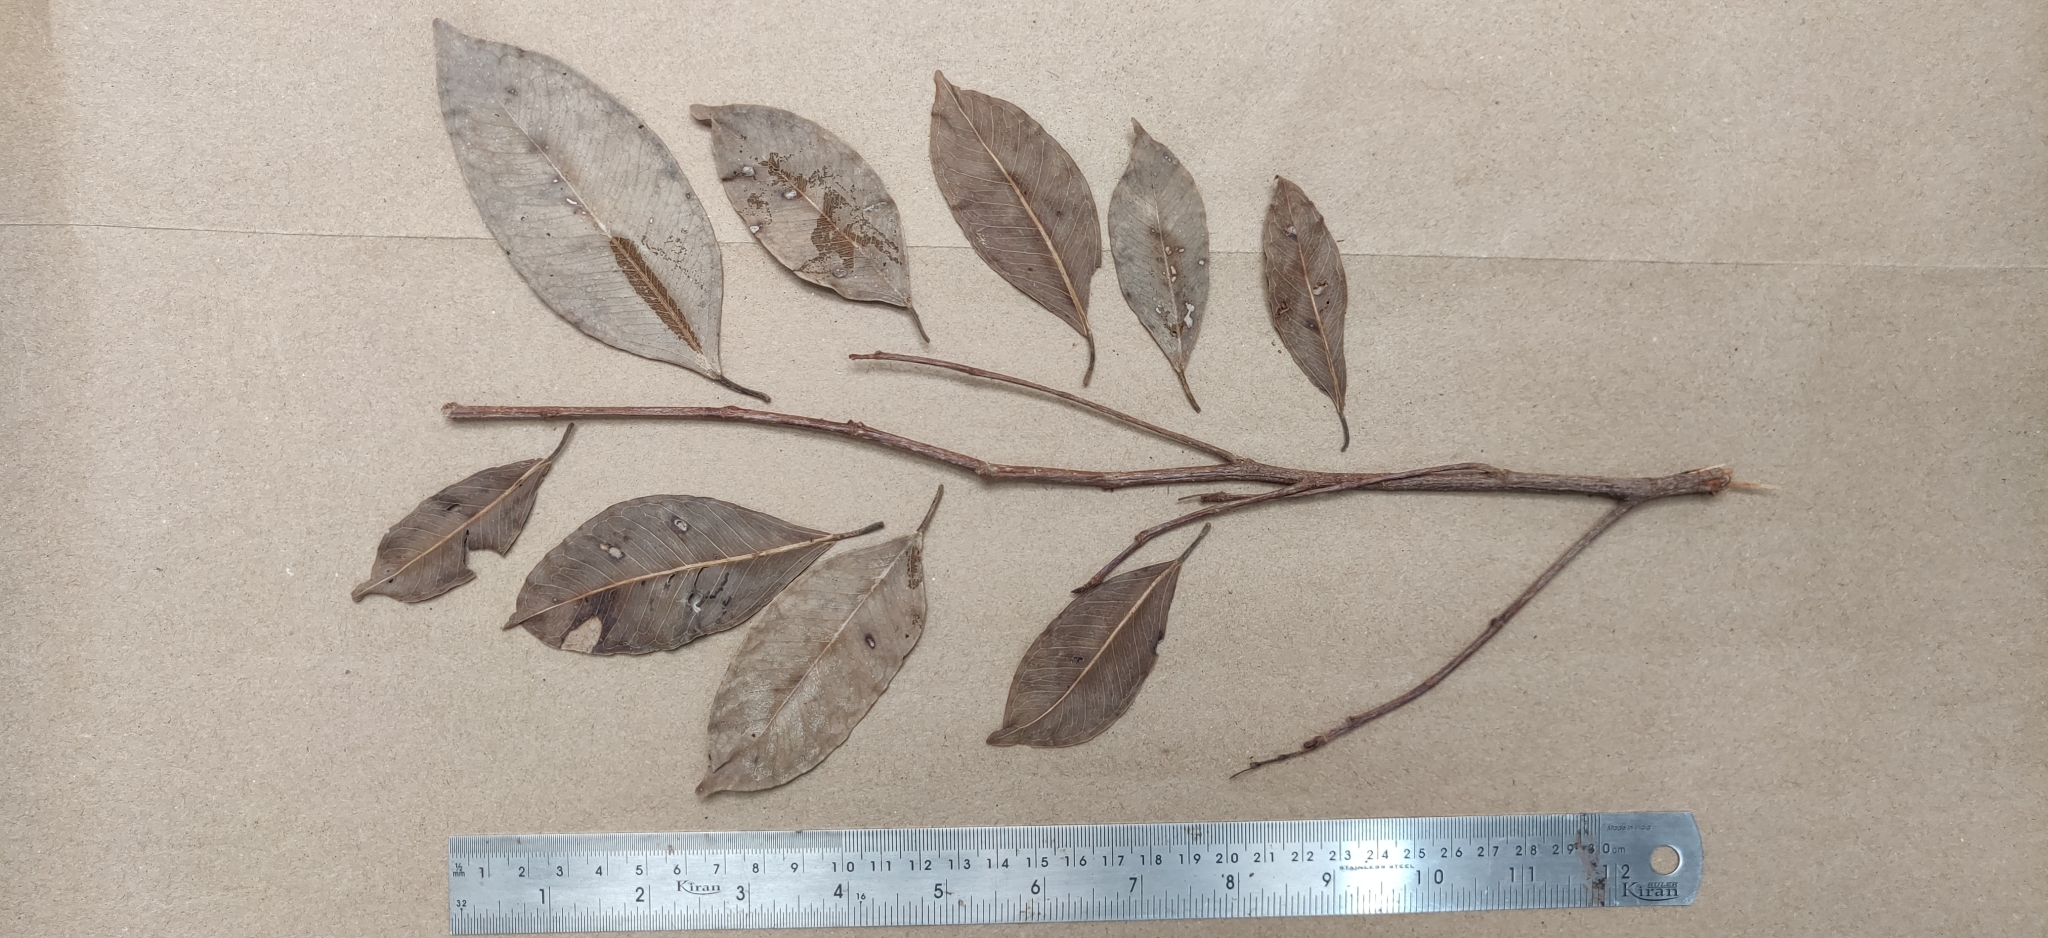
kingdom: Plantae
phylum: Tracheophyta
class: Magnoliopsida
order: Rosales
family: Moraceae
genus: Ficus
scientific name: Ficus microcarpa
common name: Chinese banyan
